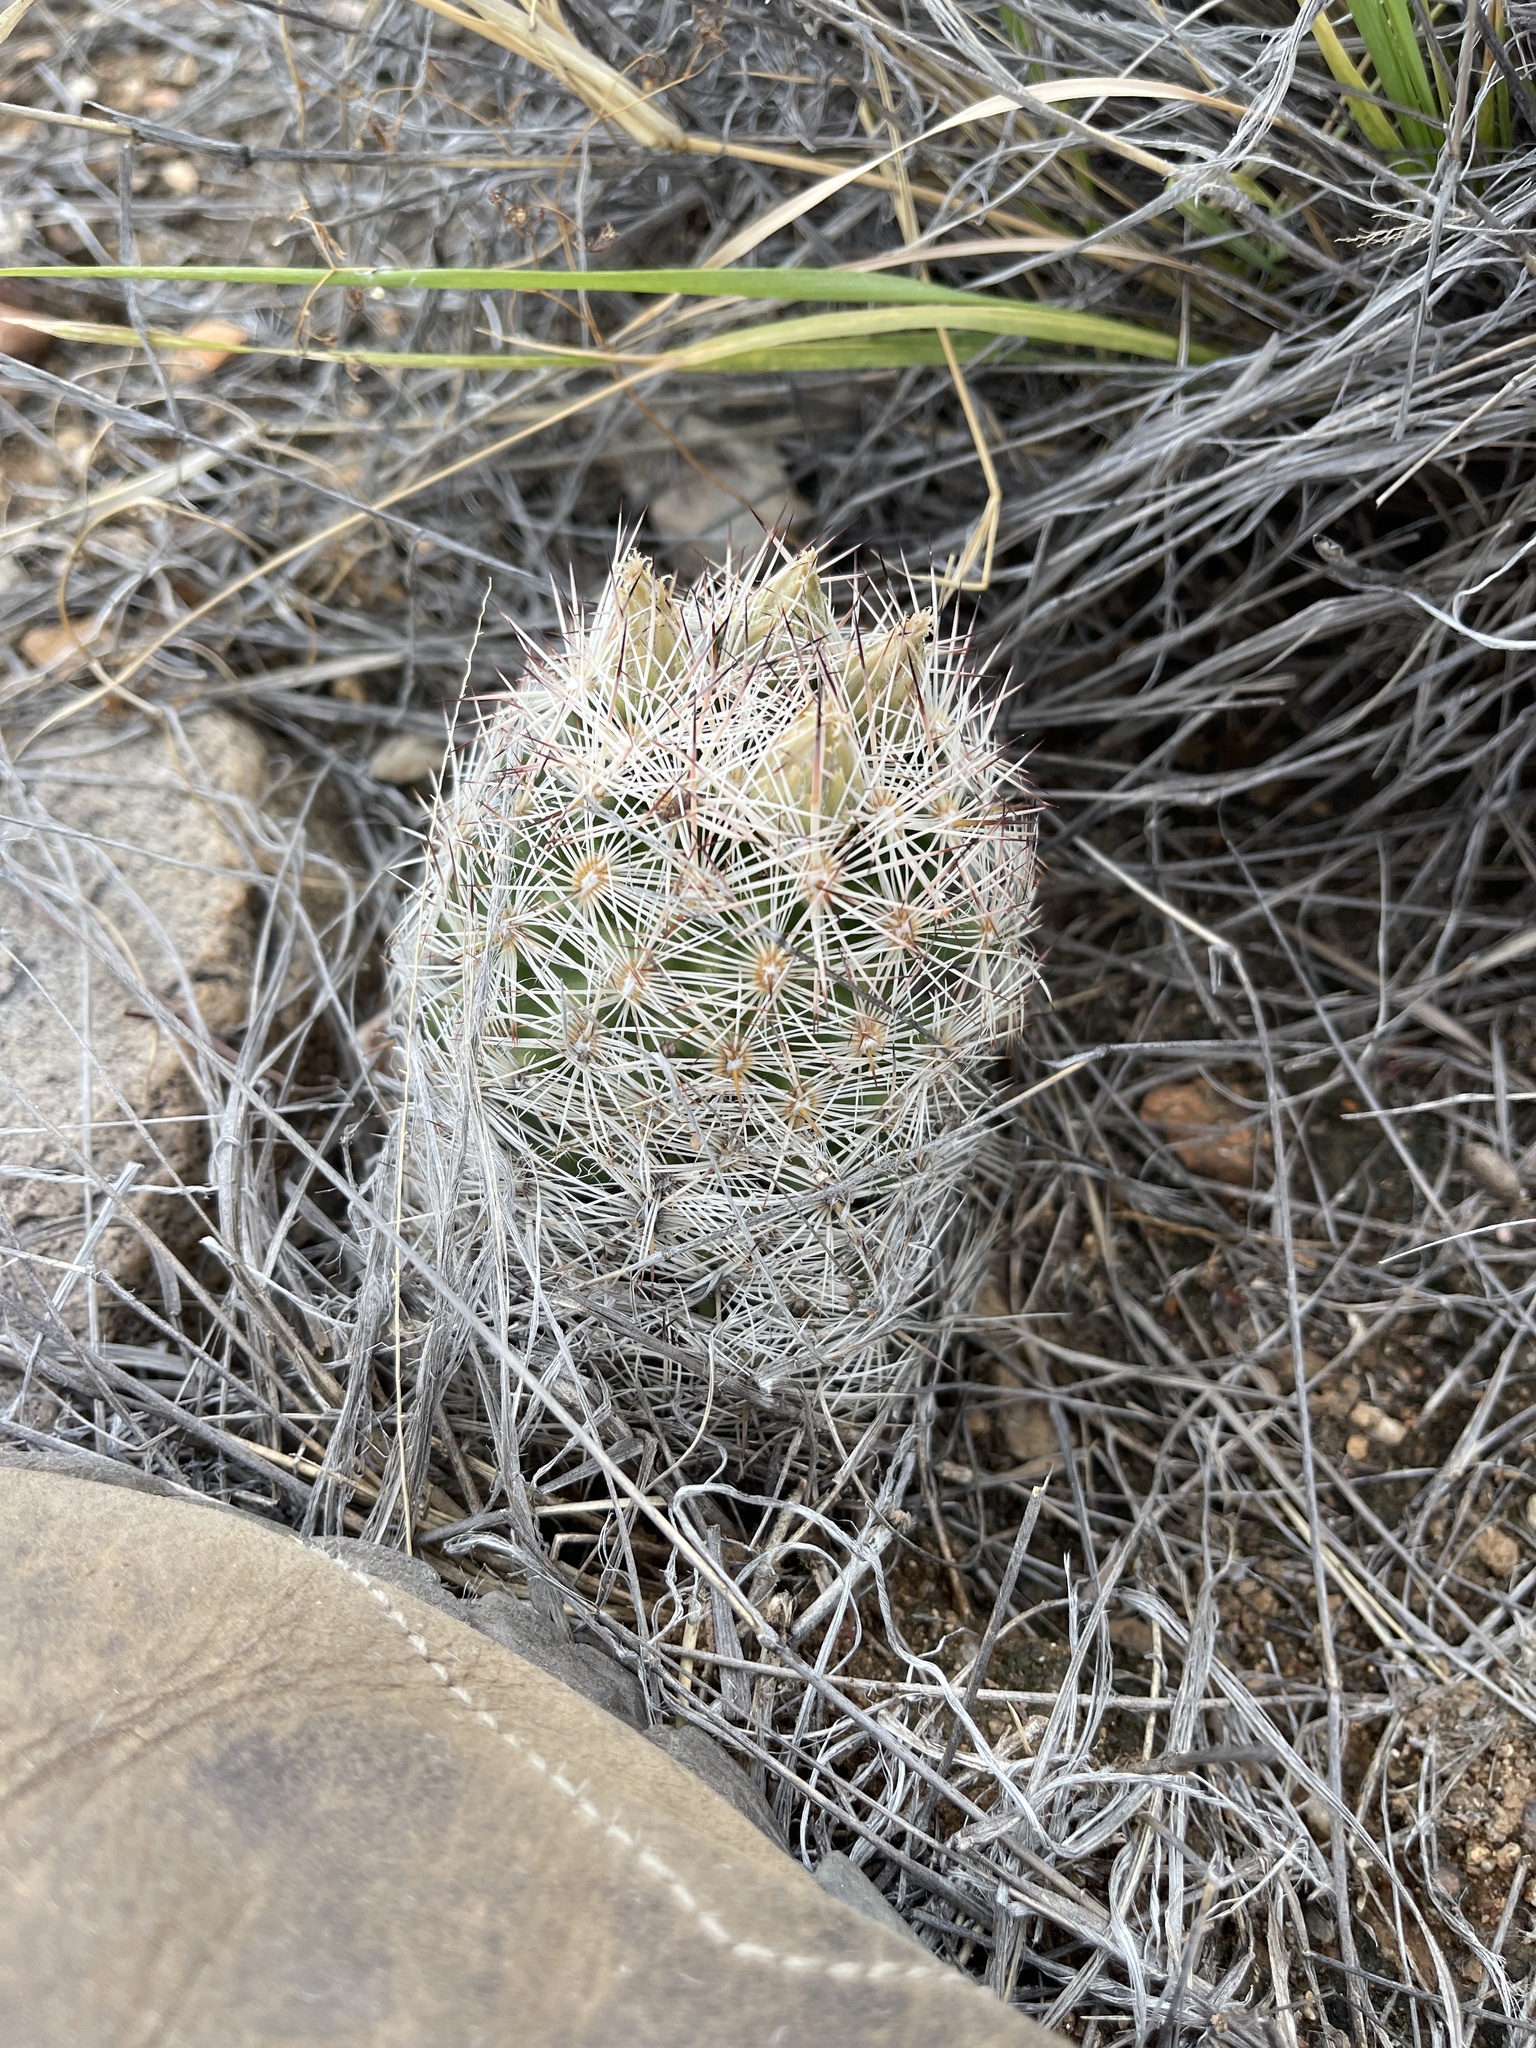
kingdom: Plantae
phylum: Tracheophyta
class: Magnoliopsida
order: Caryophyllales
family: Cactaceae
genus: Pelecyphora
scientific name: Pelecyphora vivipara
